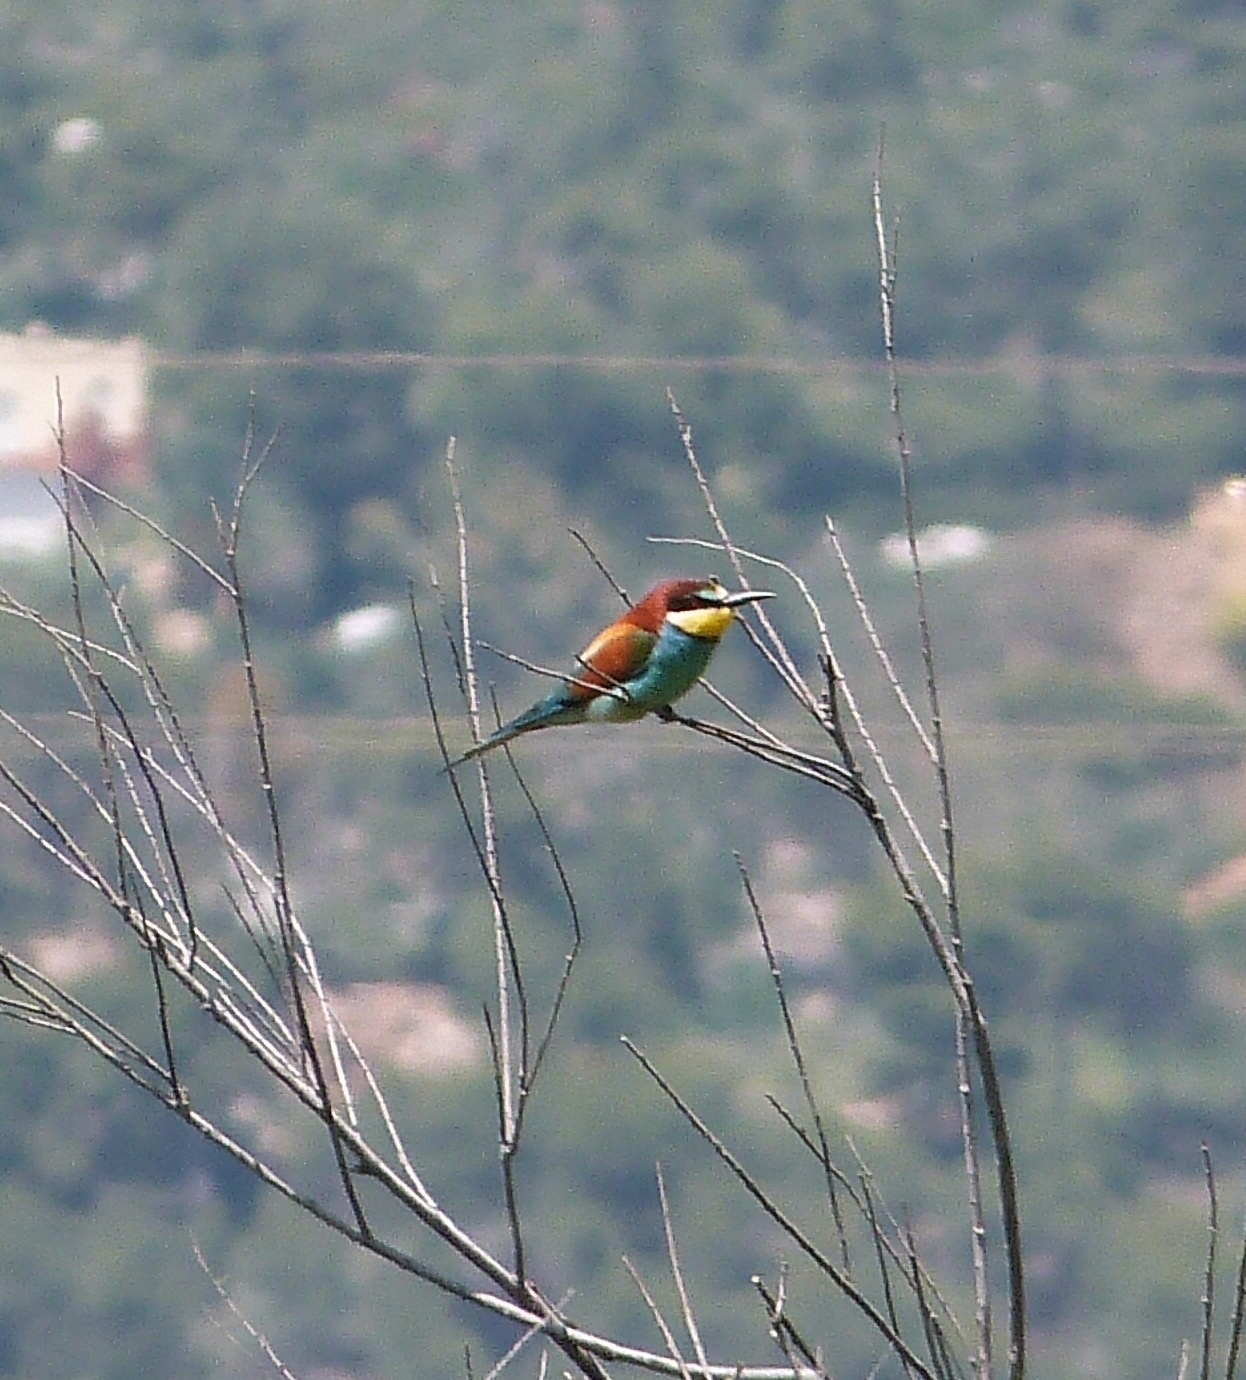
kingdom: Animalia
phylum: Chordata
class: Aves
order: Coraciiformes
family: Meropidae
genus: Merops
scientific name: Merops apiaster
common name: European bee-eater
